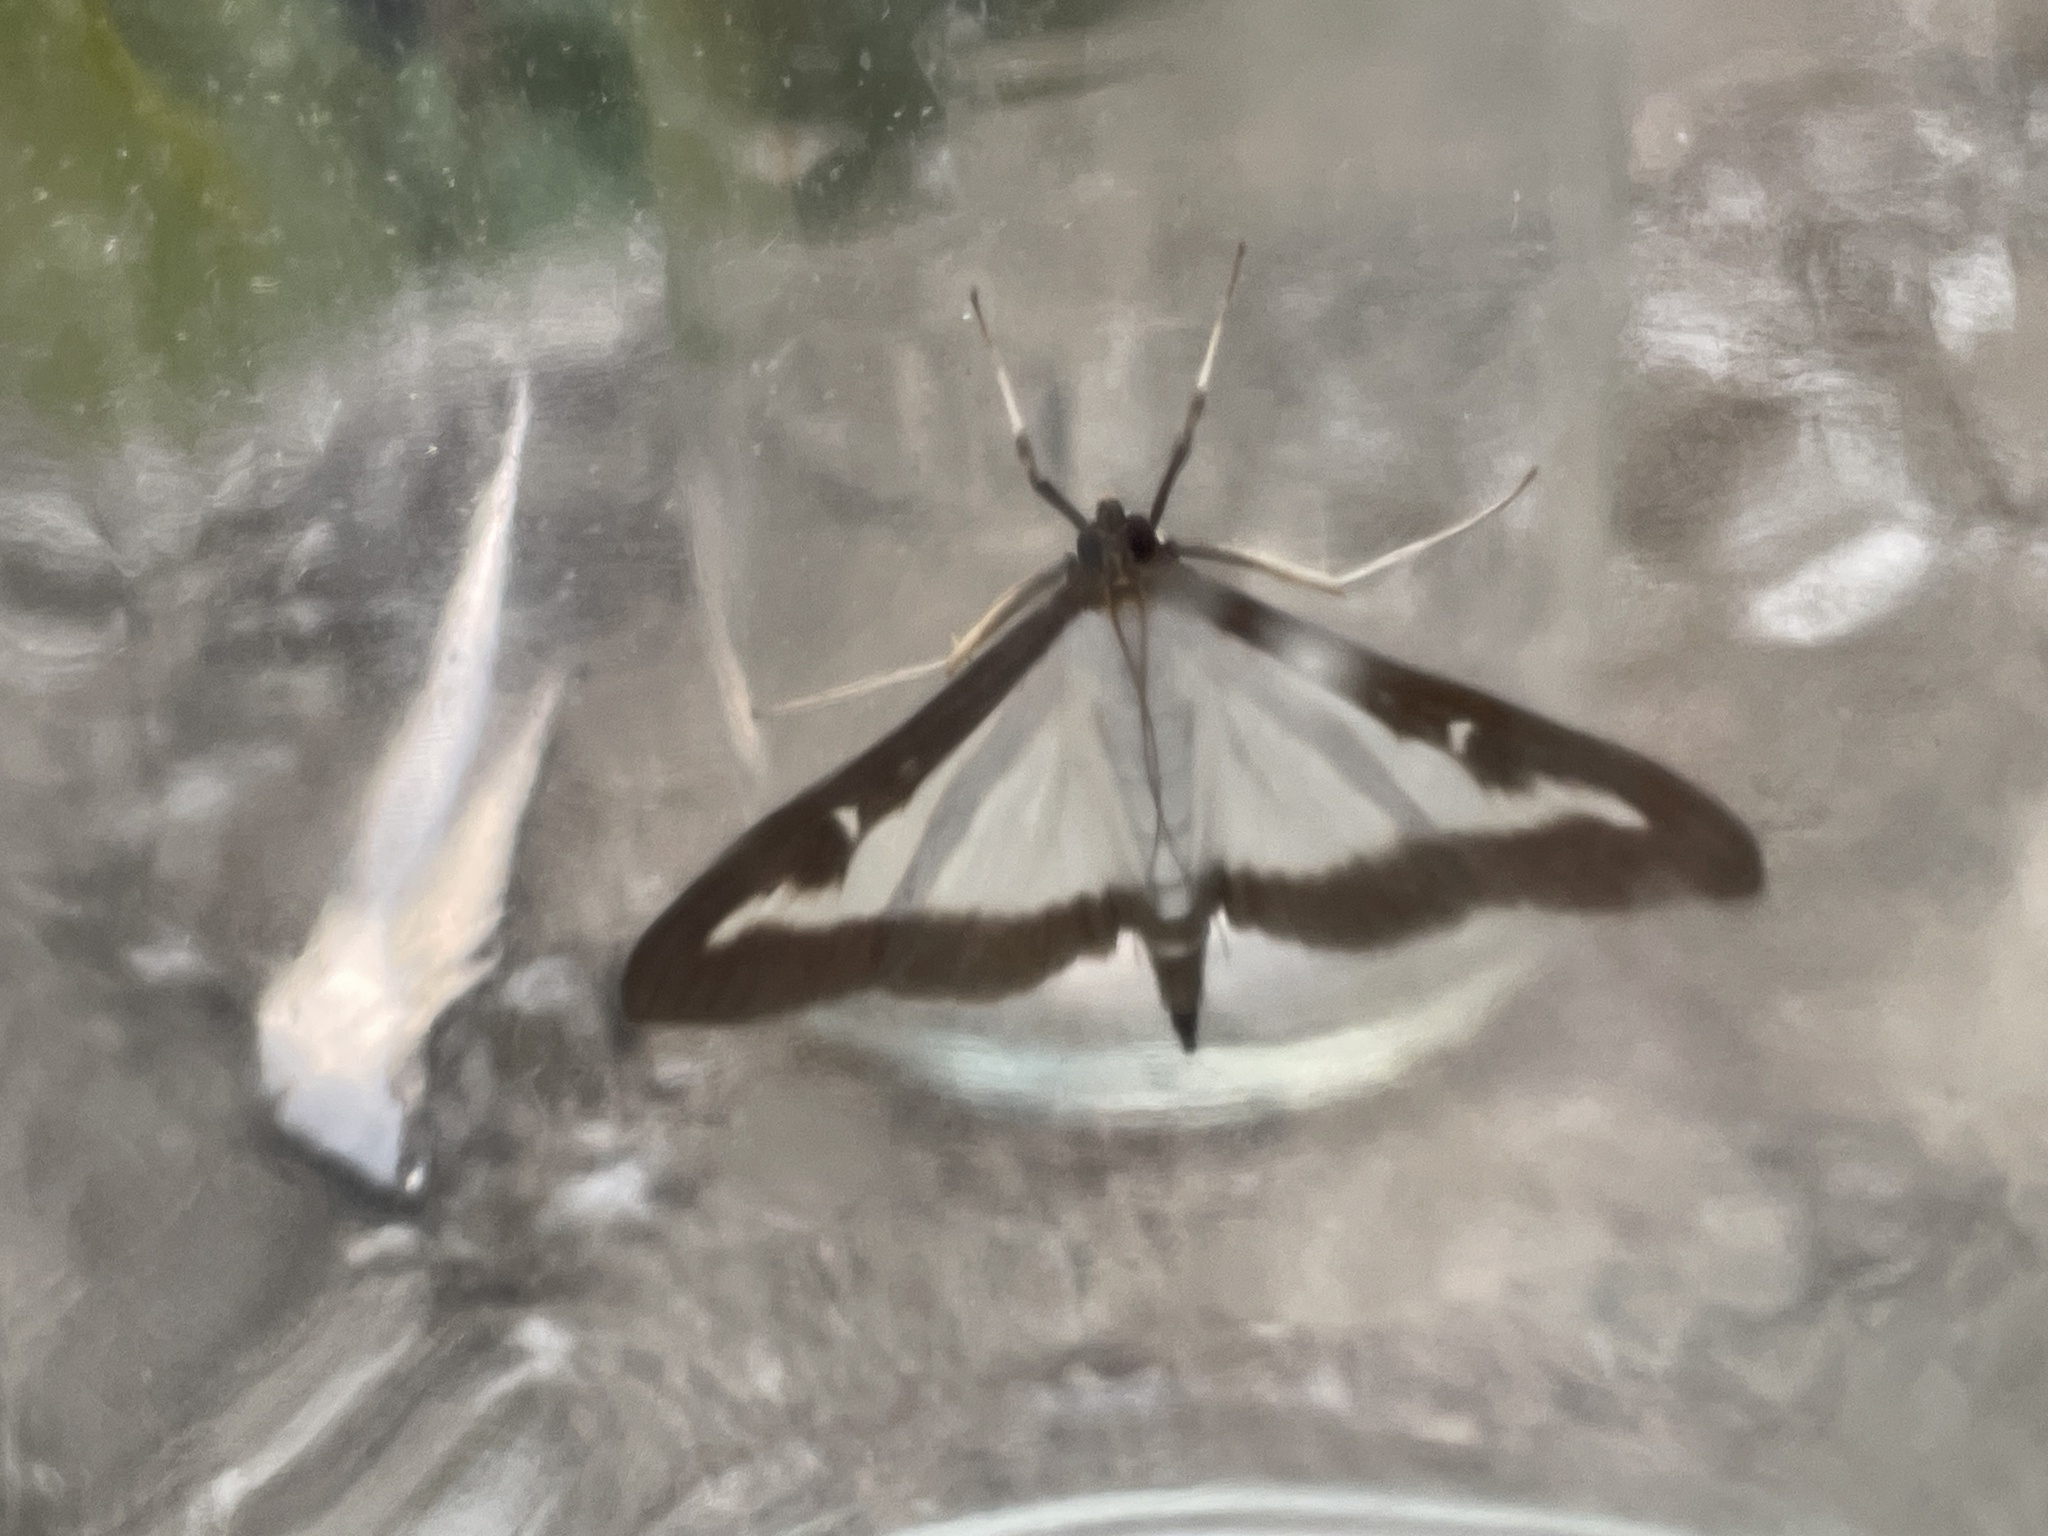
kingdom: Animalia
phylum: Arthropoda
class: Insecta
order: Lepidoptera
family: Crambidae
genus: Cydalima
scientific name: Cydalima perspectalis
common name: Box tree moth
